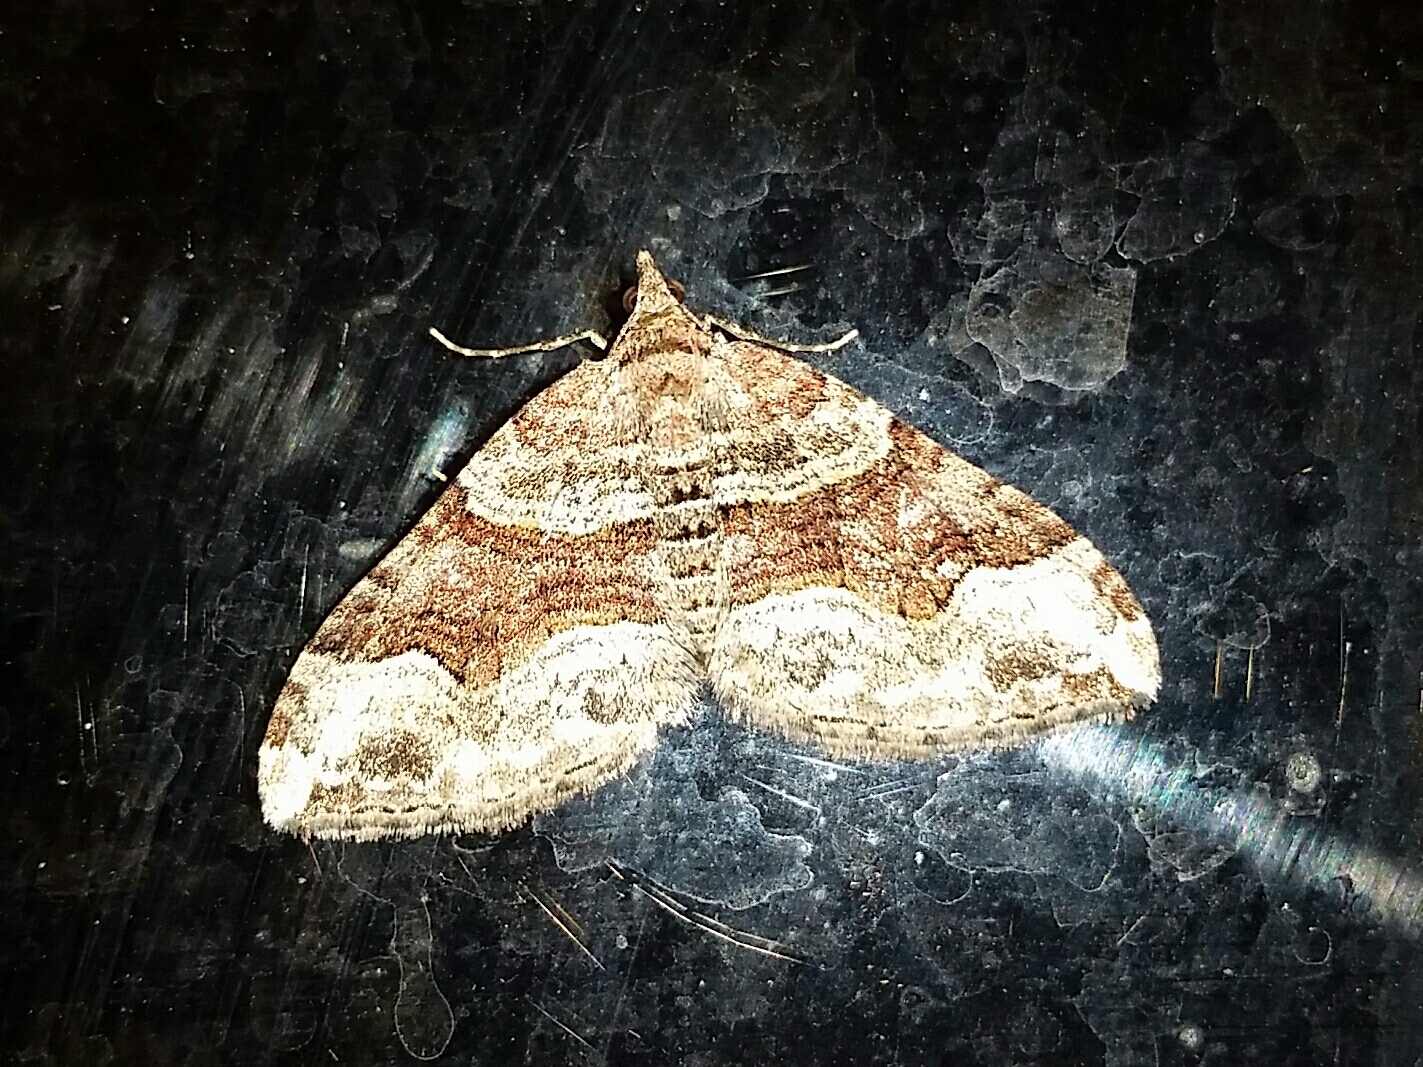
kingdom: Animalia
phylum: Arthropoda
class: Insecta
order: Lepidoptera
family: Geometridae
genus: Xanthorhoe
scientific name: Xanthorhoe defensaria
